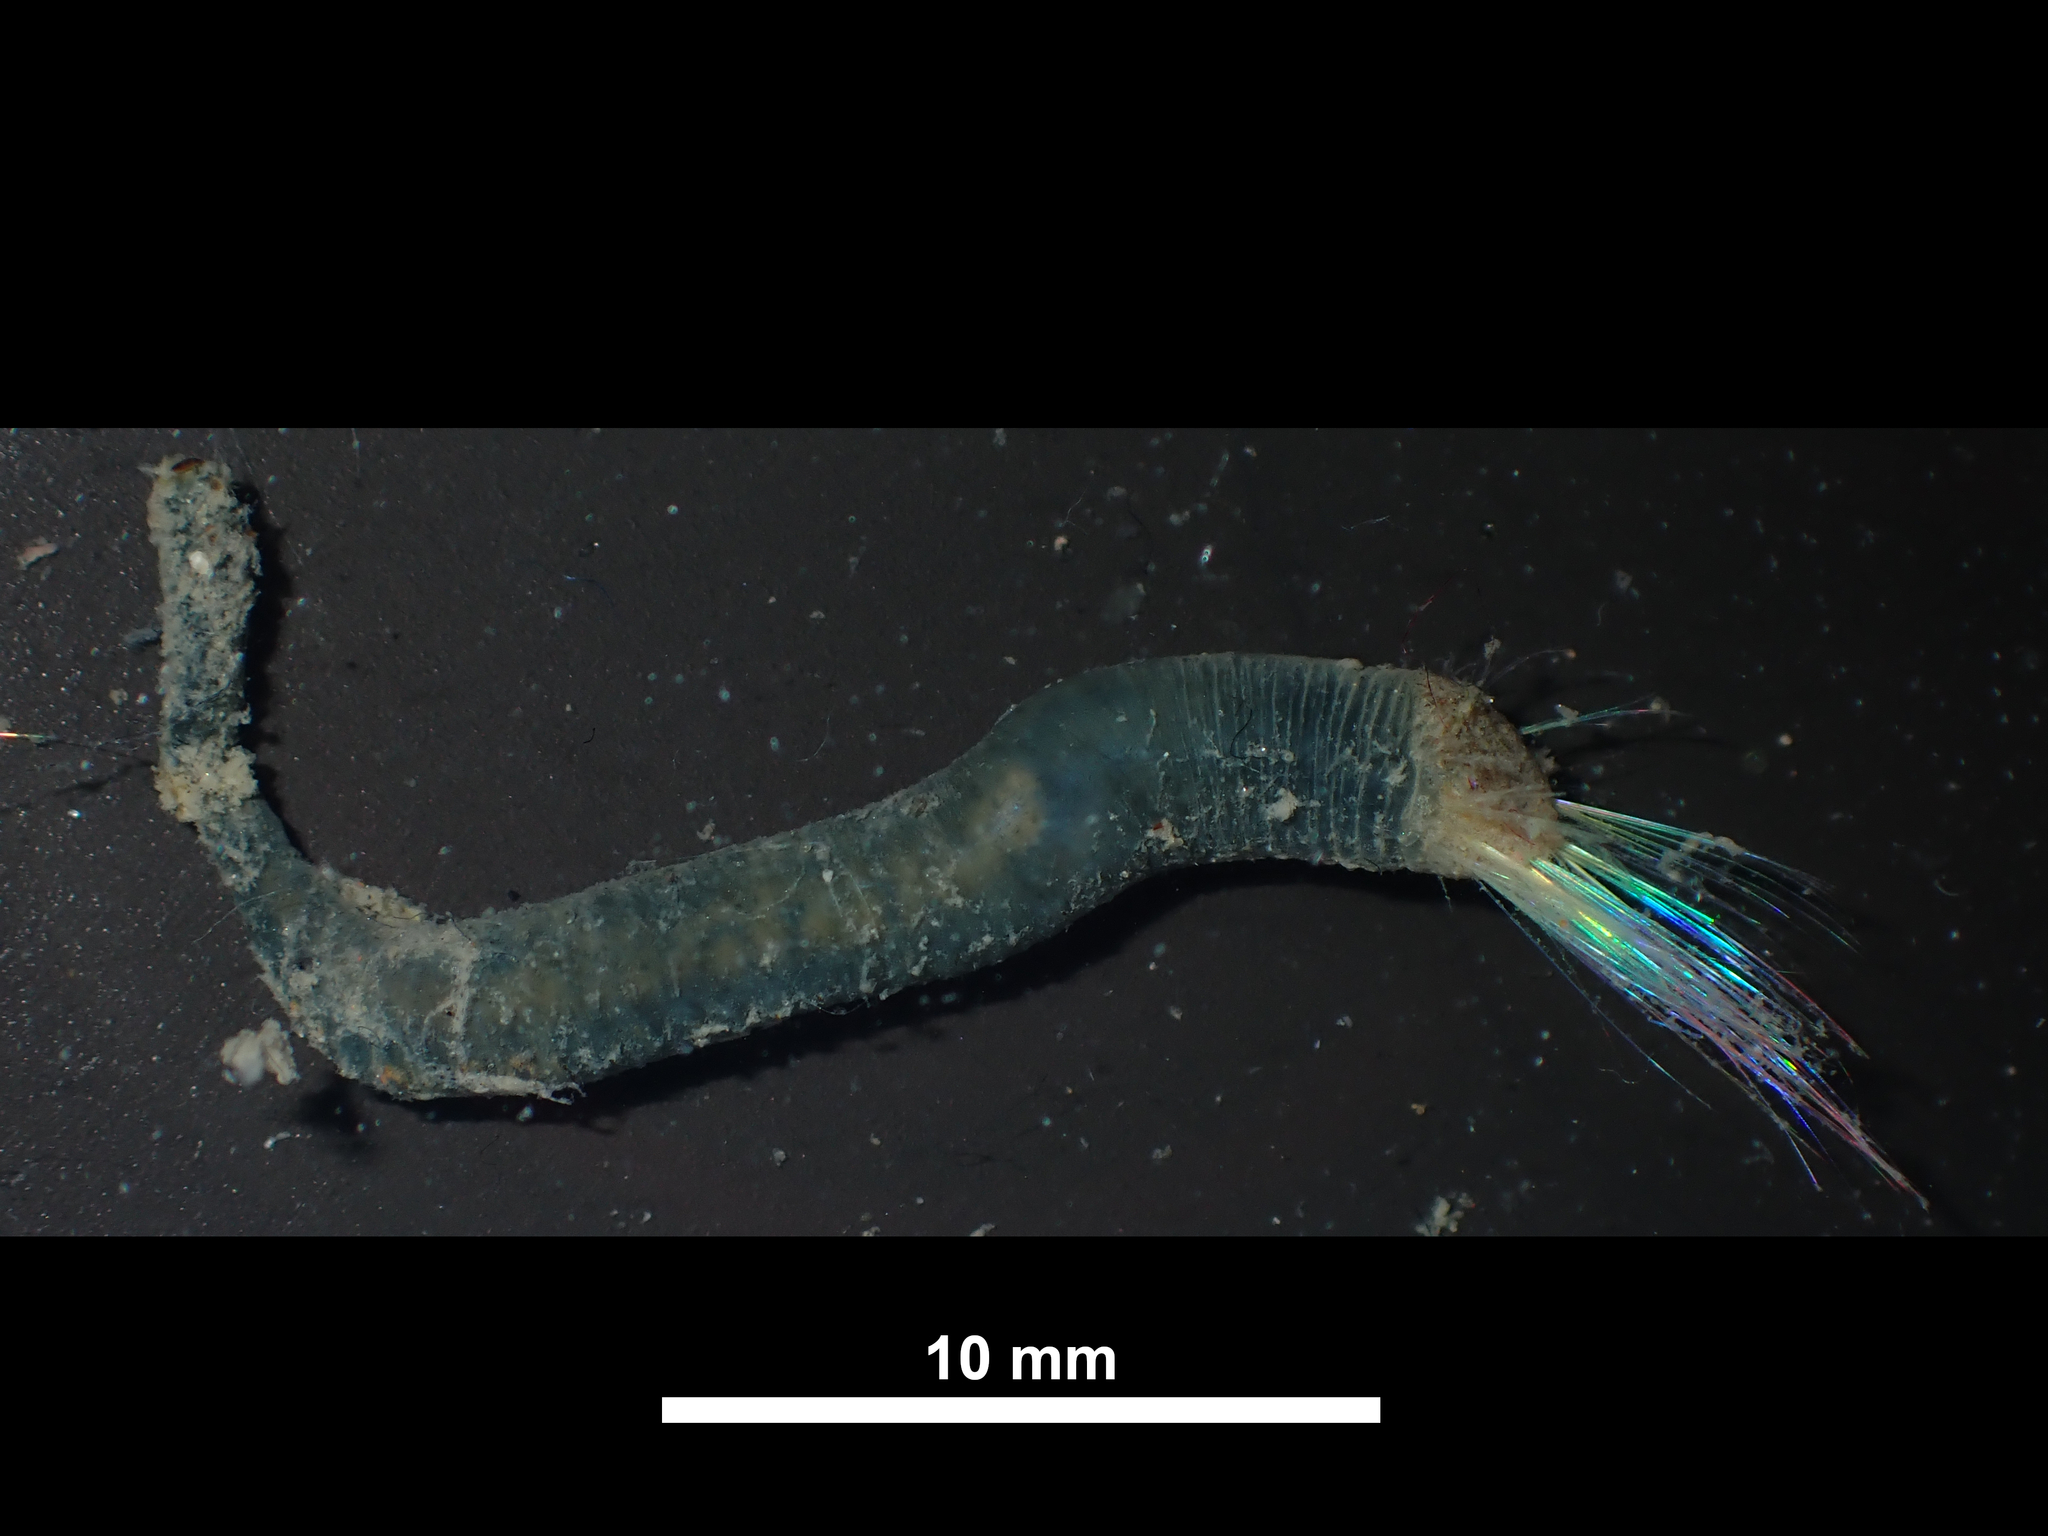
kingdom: Animalia
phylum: Annelida
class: Polychaeta
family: Flabelligeridae
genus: Daylithos
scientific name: Daylithos dieteri
